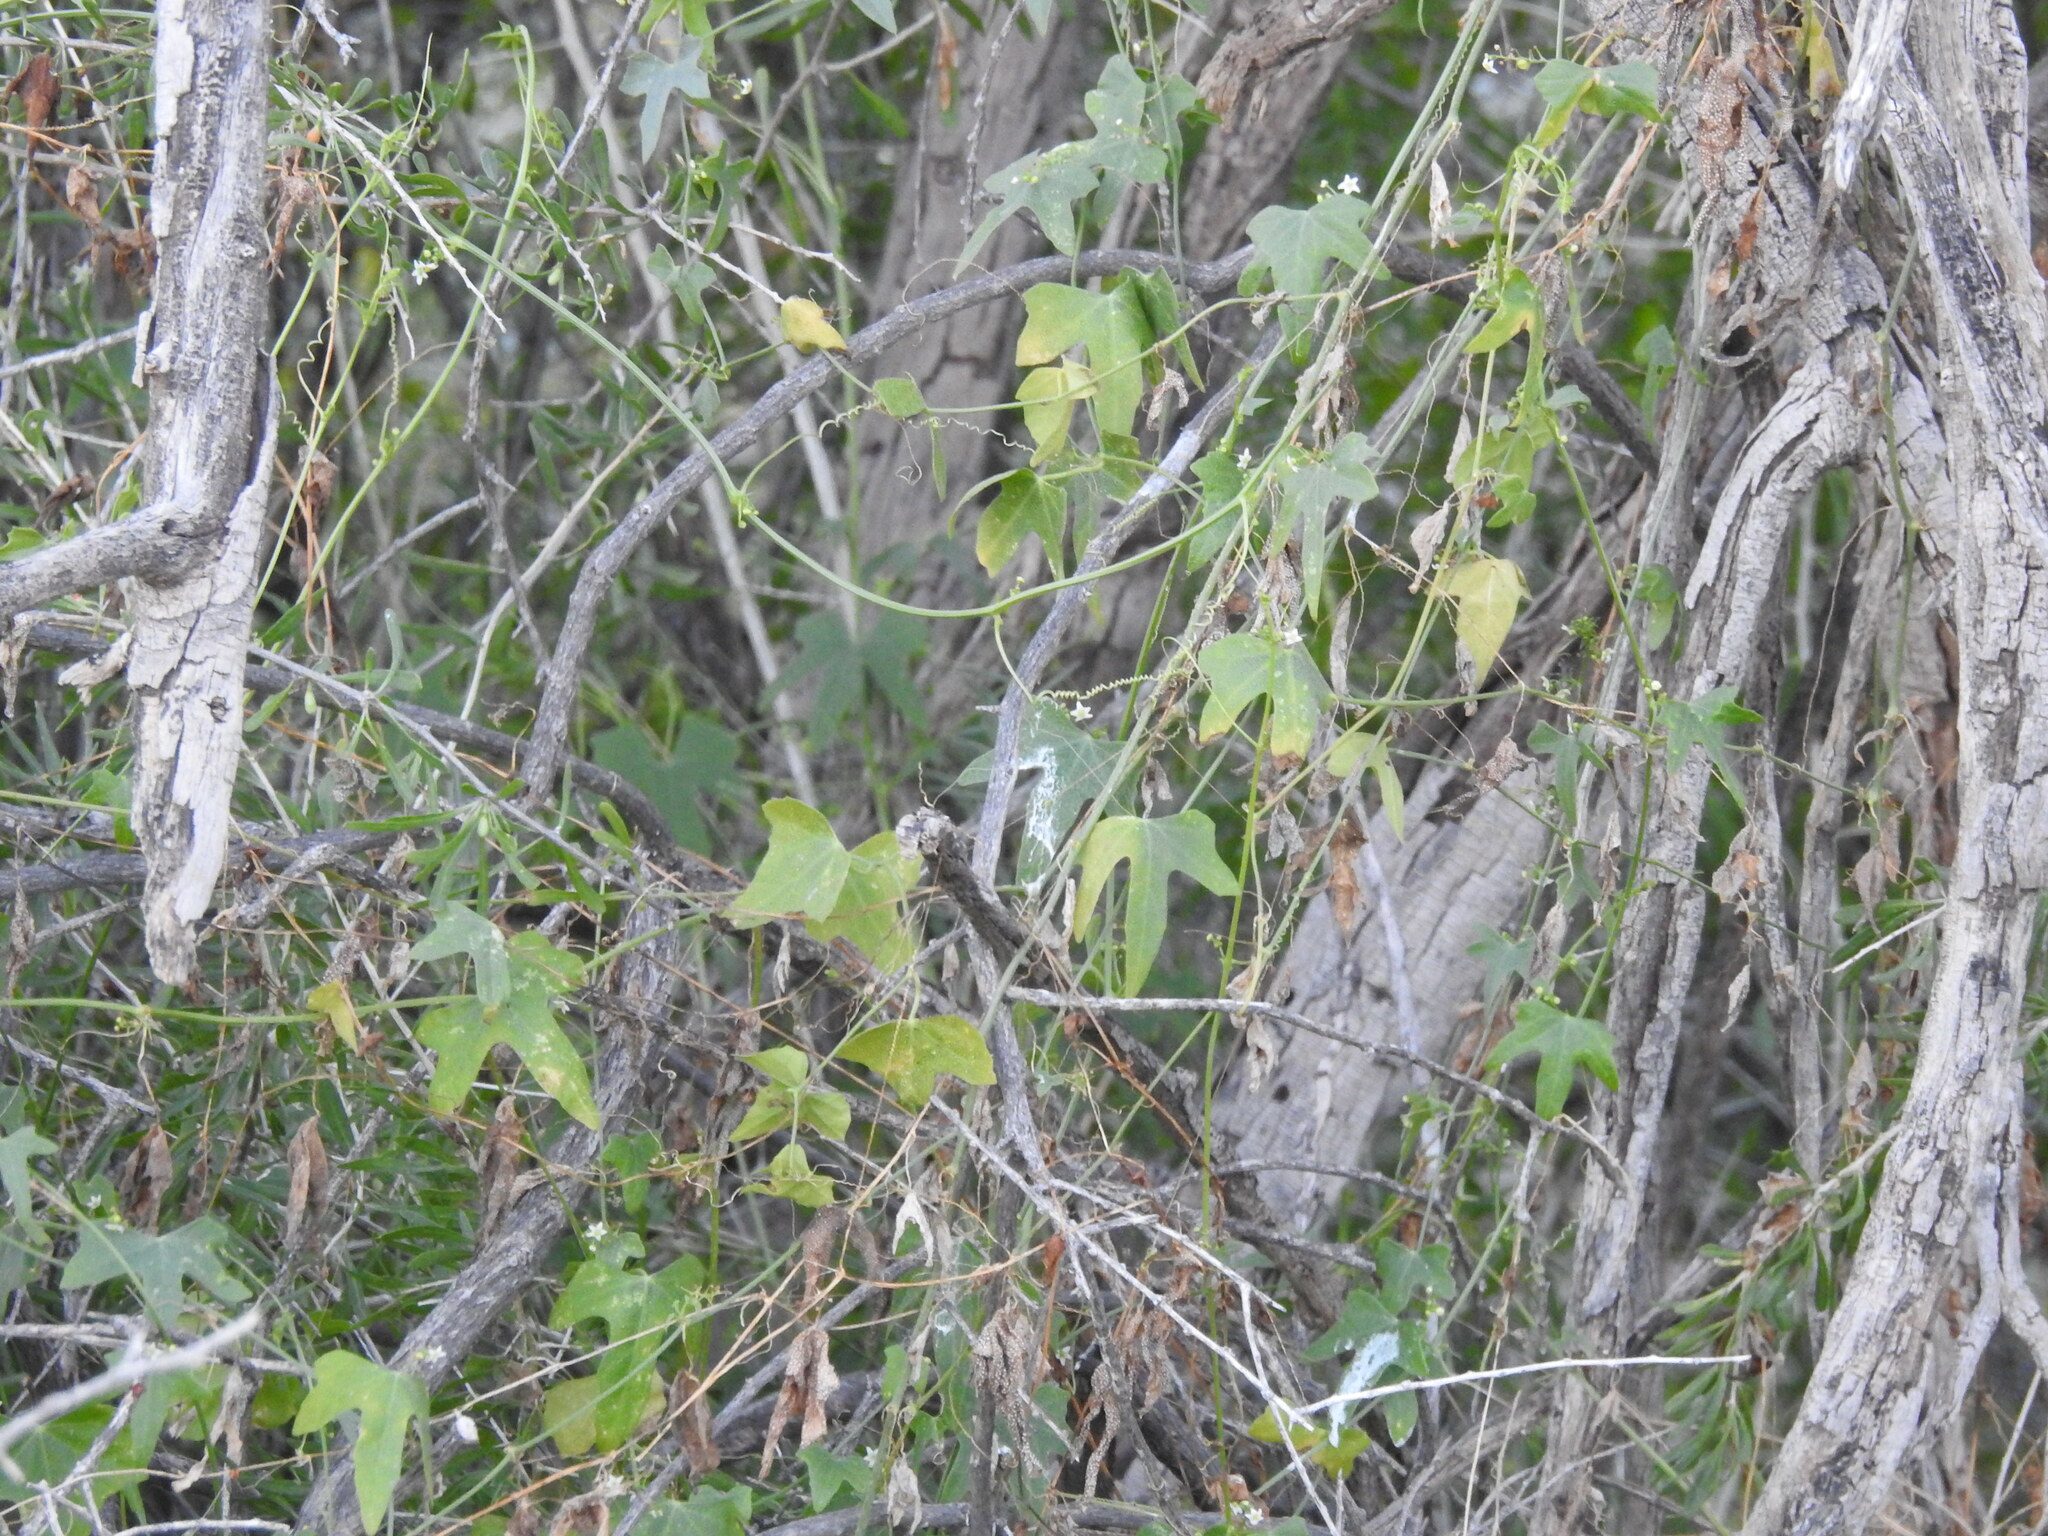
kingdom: Plantae
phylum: Tracheophyta
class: Magnoliopsida
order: Cucurbitales
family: Cucurbitaceae
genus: Echinopepon
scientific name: Echinopepon bigelovii
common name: Desert starvine
